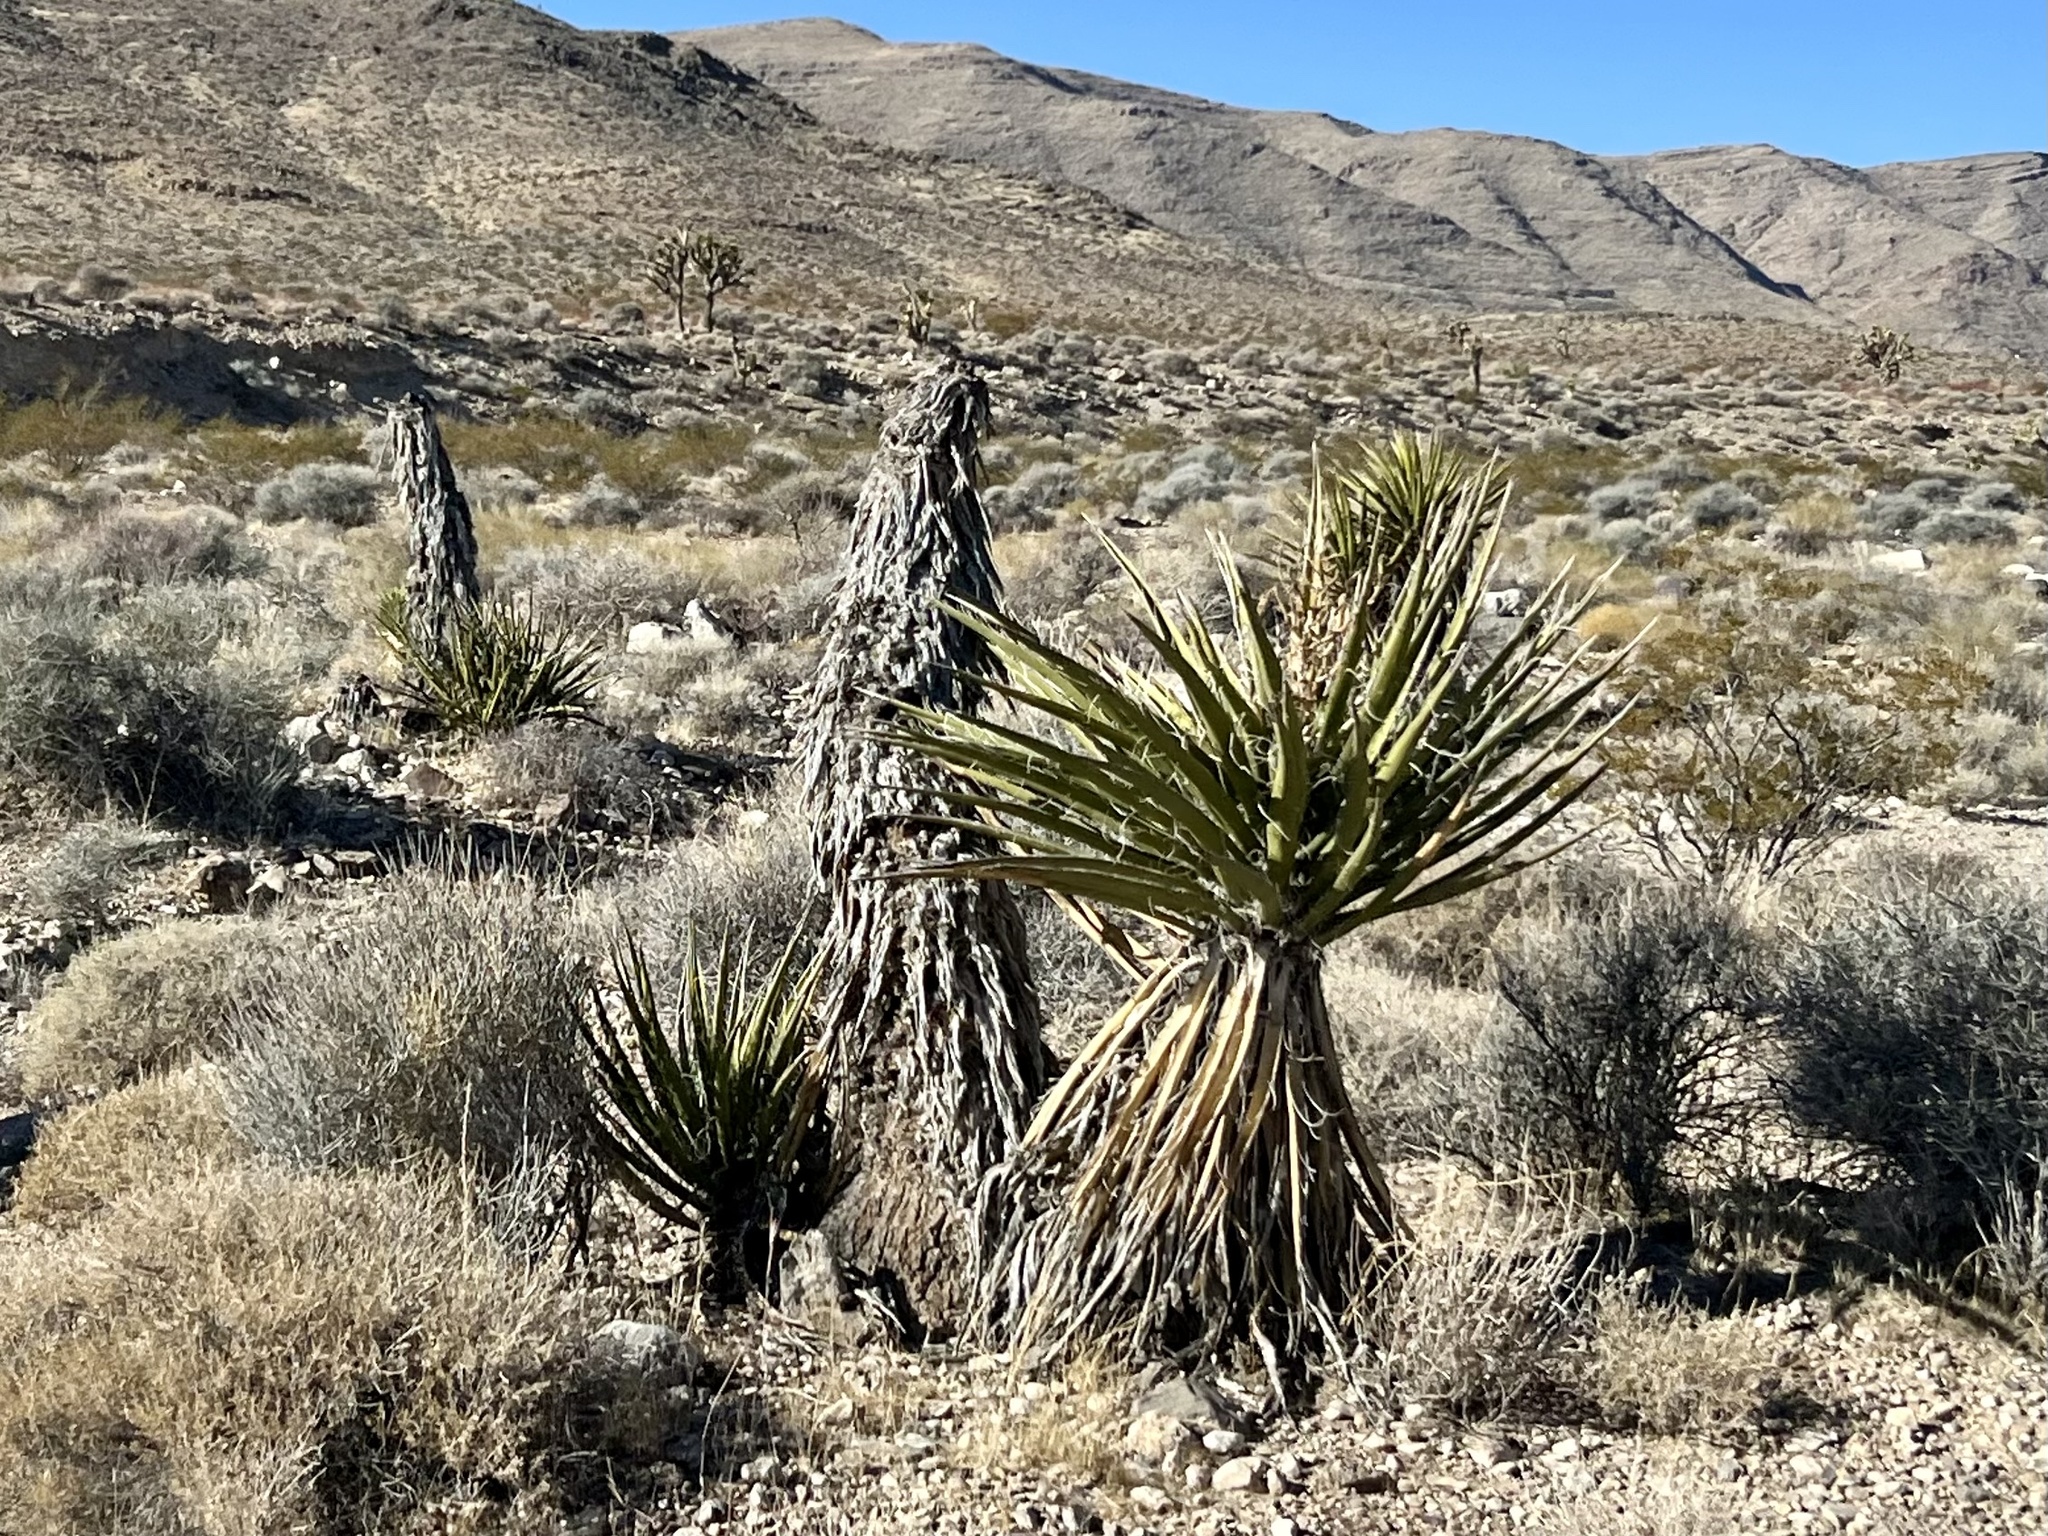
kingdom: Plantae
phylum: Tracheophyta
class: Liliopsida
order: Asparagales
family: Asparagaceae
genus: Yucca
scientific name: Yucca schidigera
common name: Mojave yucca
